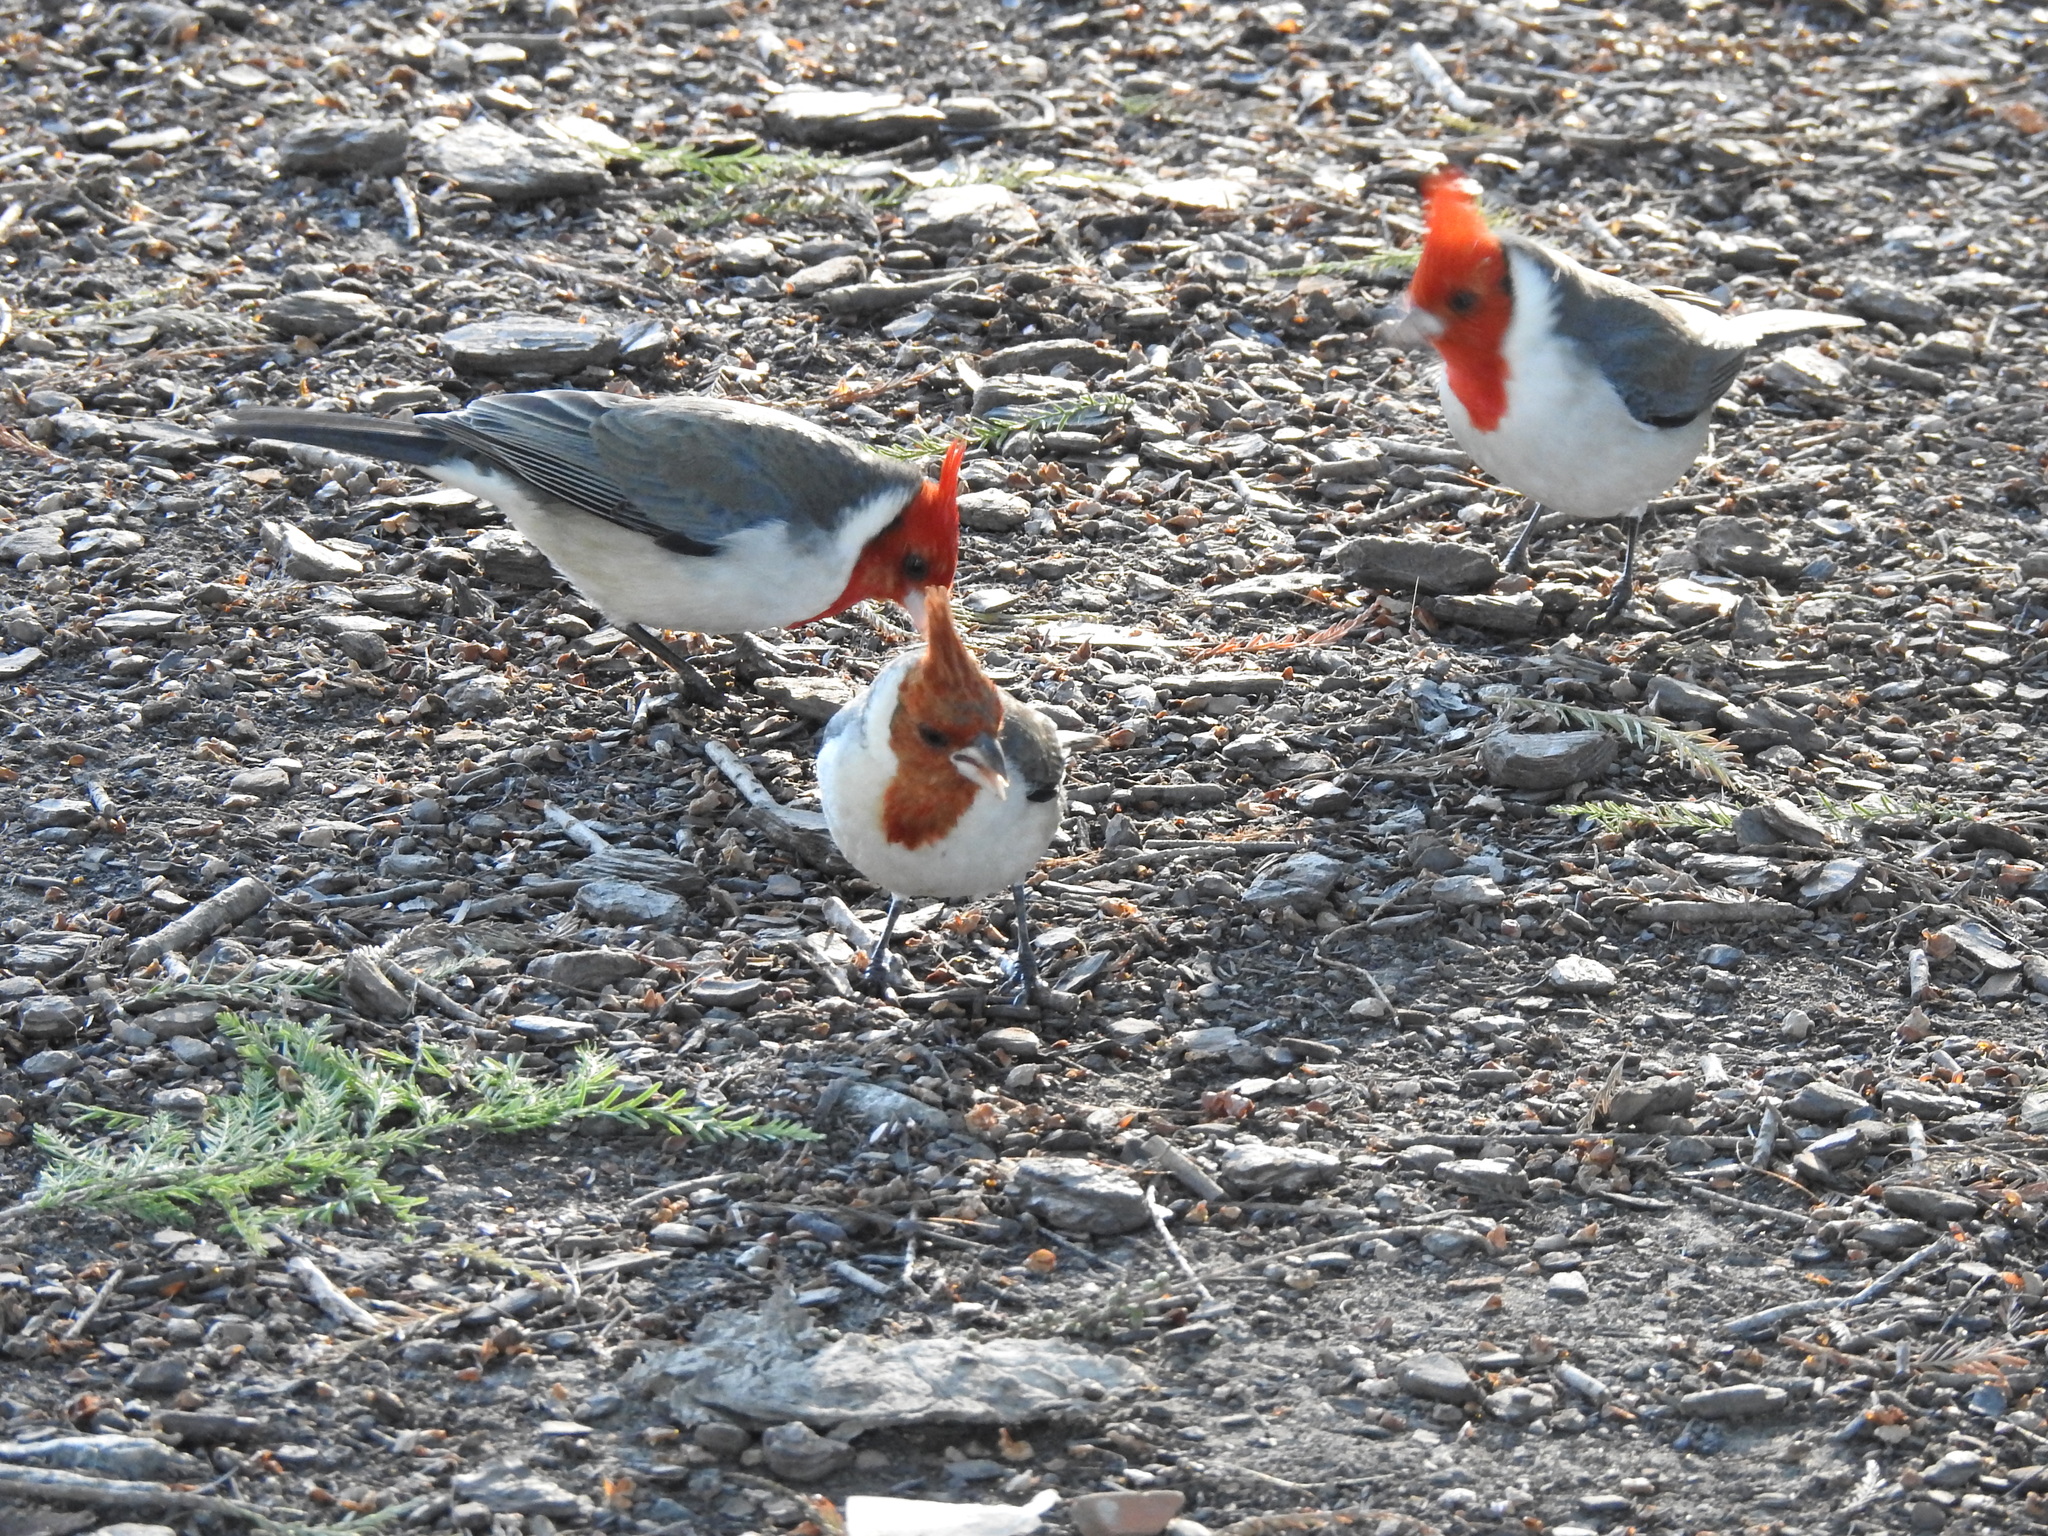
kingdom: Animalia
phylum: Chordata
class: Aves
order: Passeriformes
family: Thraupidae
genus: Paroaria
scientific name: Paroaria coronata
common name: Red-crested cardinal
